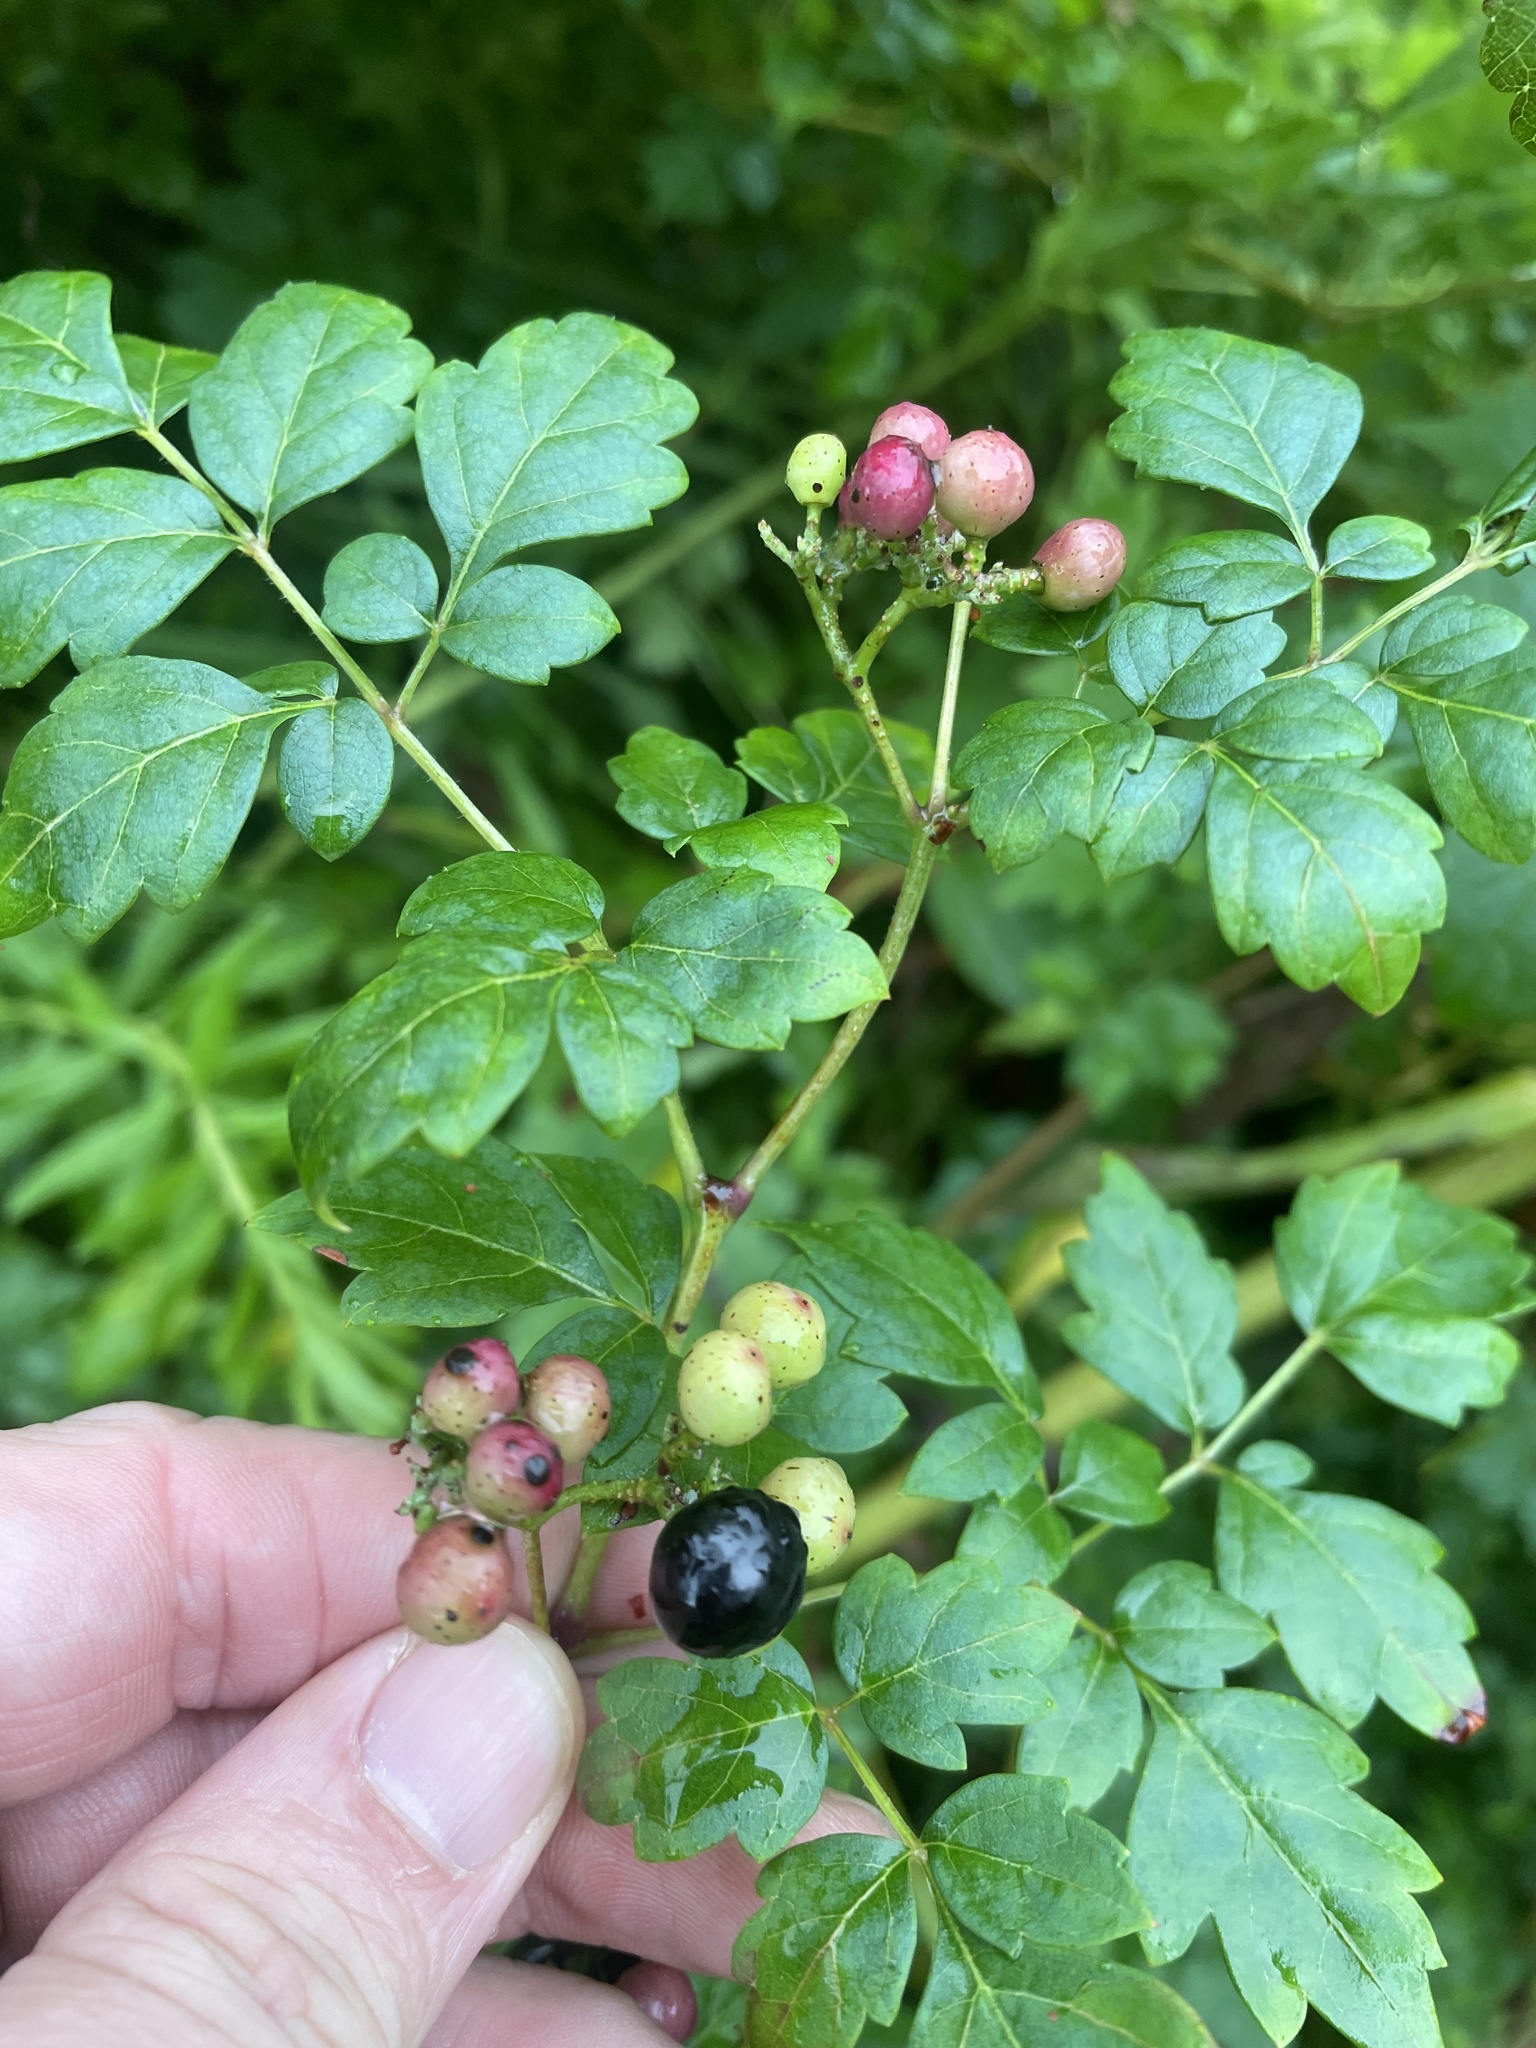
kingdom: Plantae
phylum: Tracheophyta
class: Magnoliopsida
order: Vitales
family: Vitaceae
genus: Nekemias
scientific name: Nekemias arborea
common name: Peppervine
